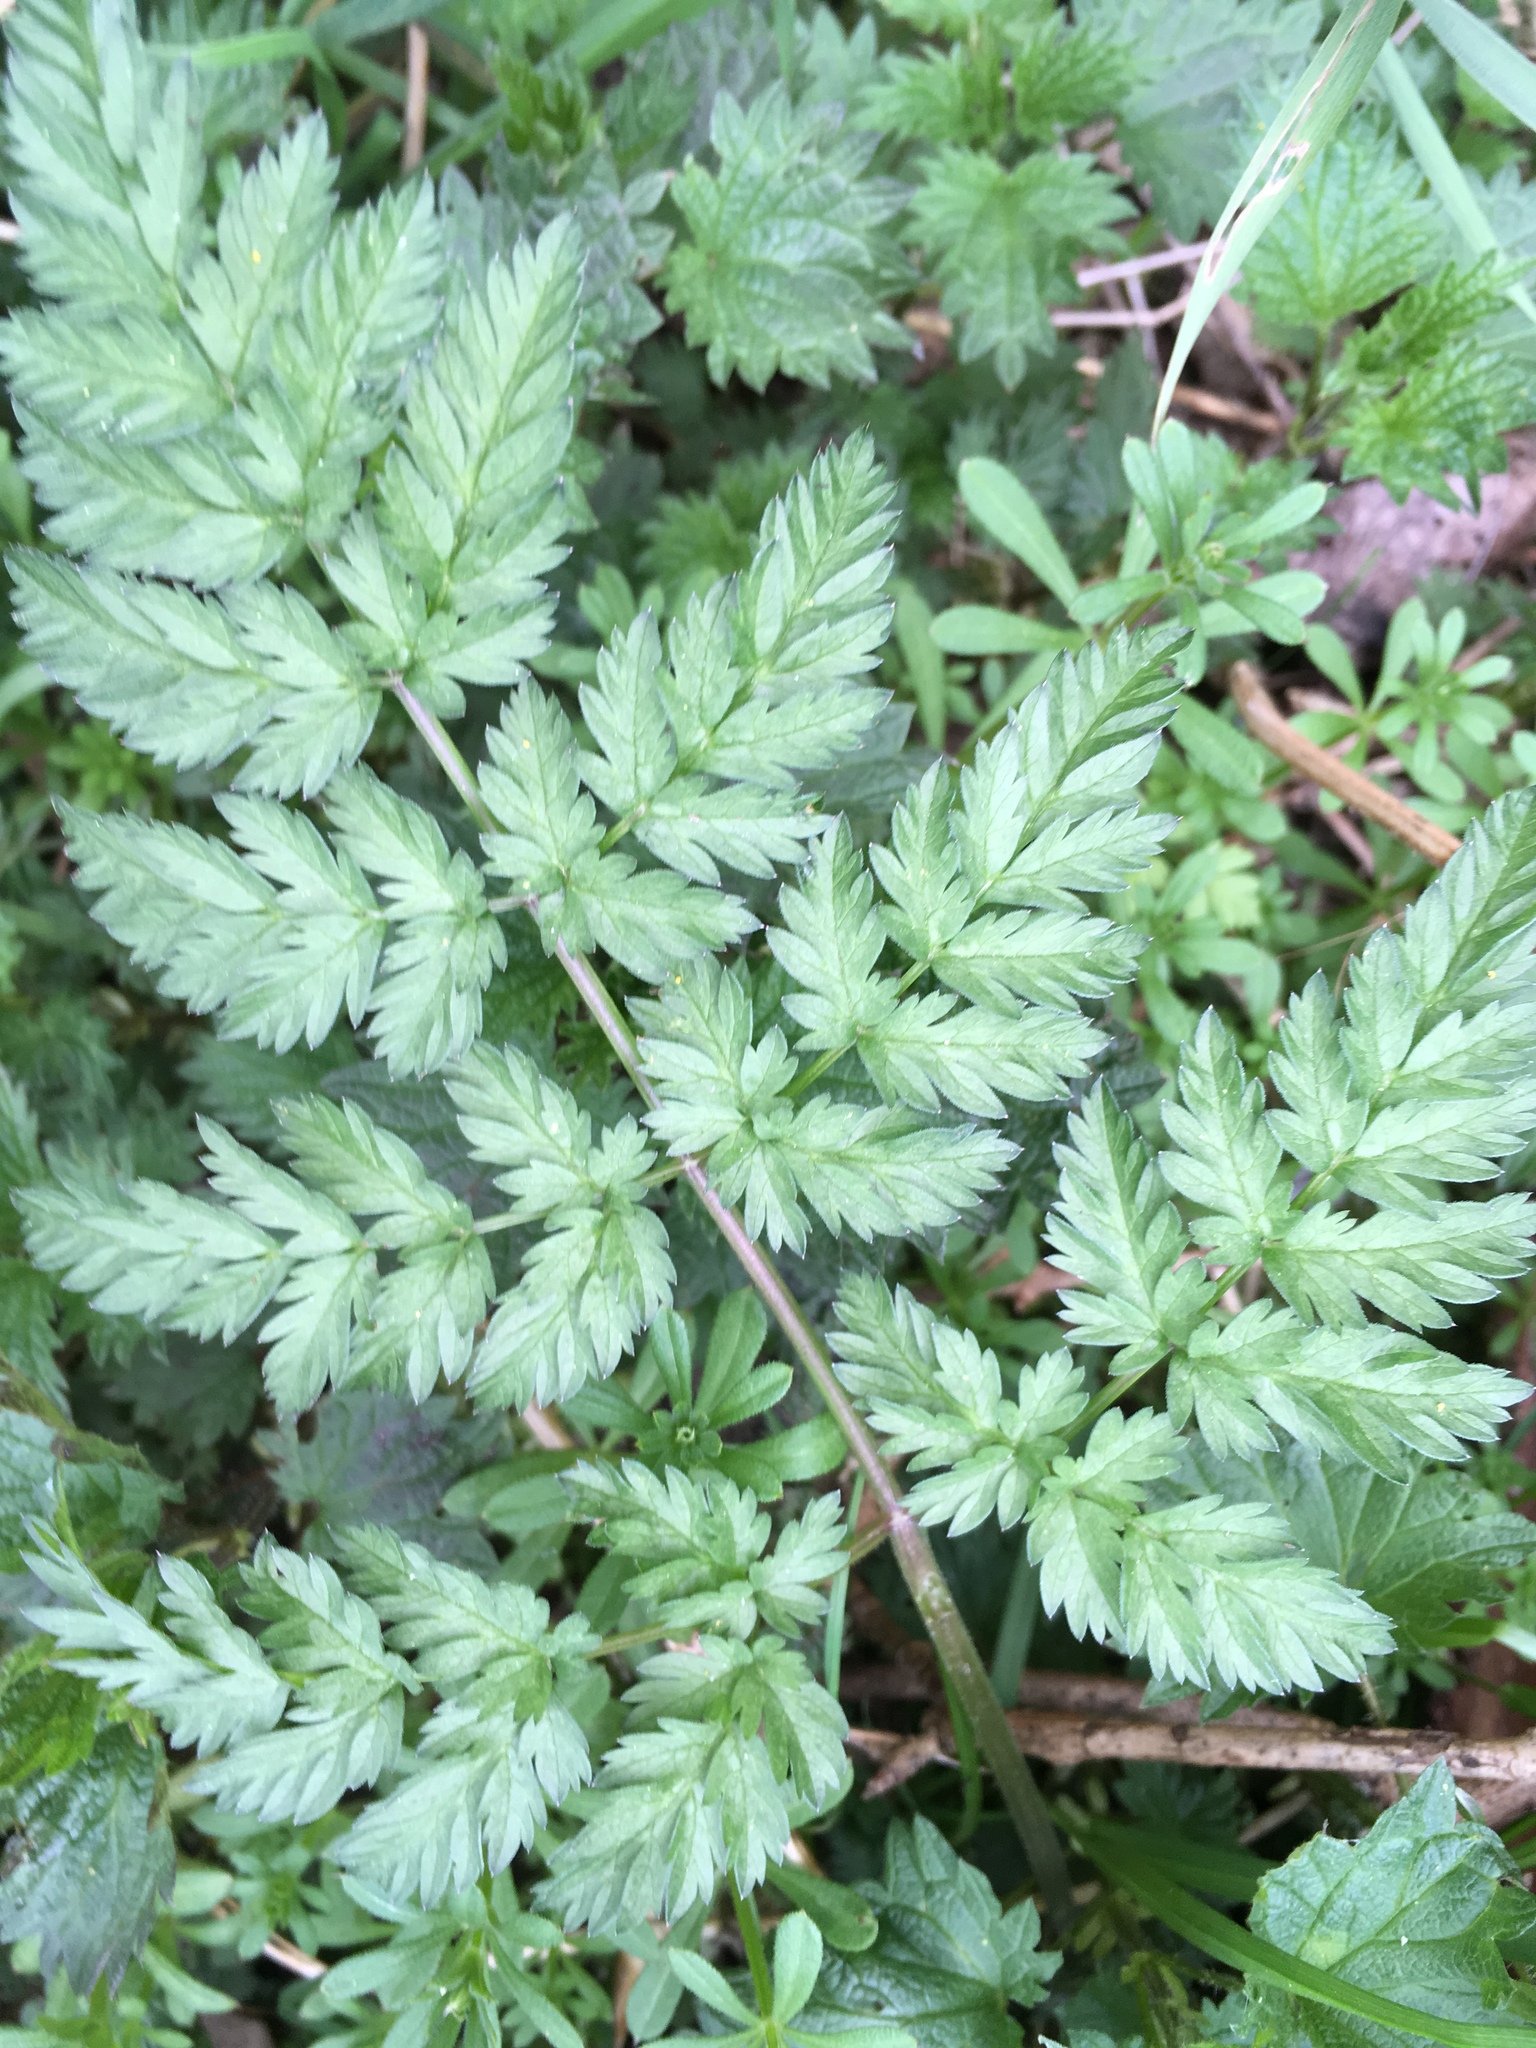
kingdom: Plantae
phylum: Tracheophyta
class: Magnoliopsida
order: Apiales
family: Apiaceae
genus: Anthriscus
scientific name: Anthriscus sylvestris
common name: Cow parsley
